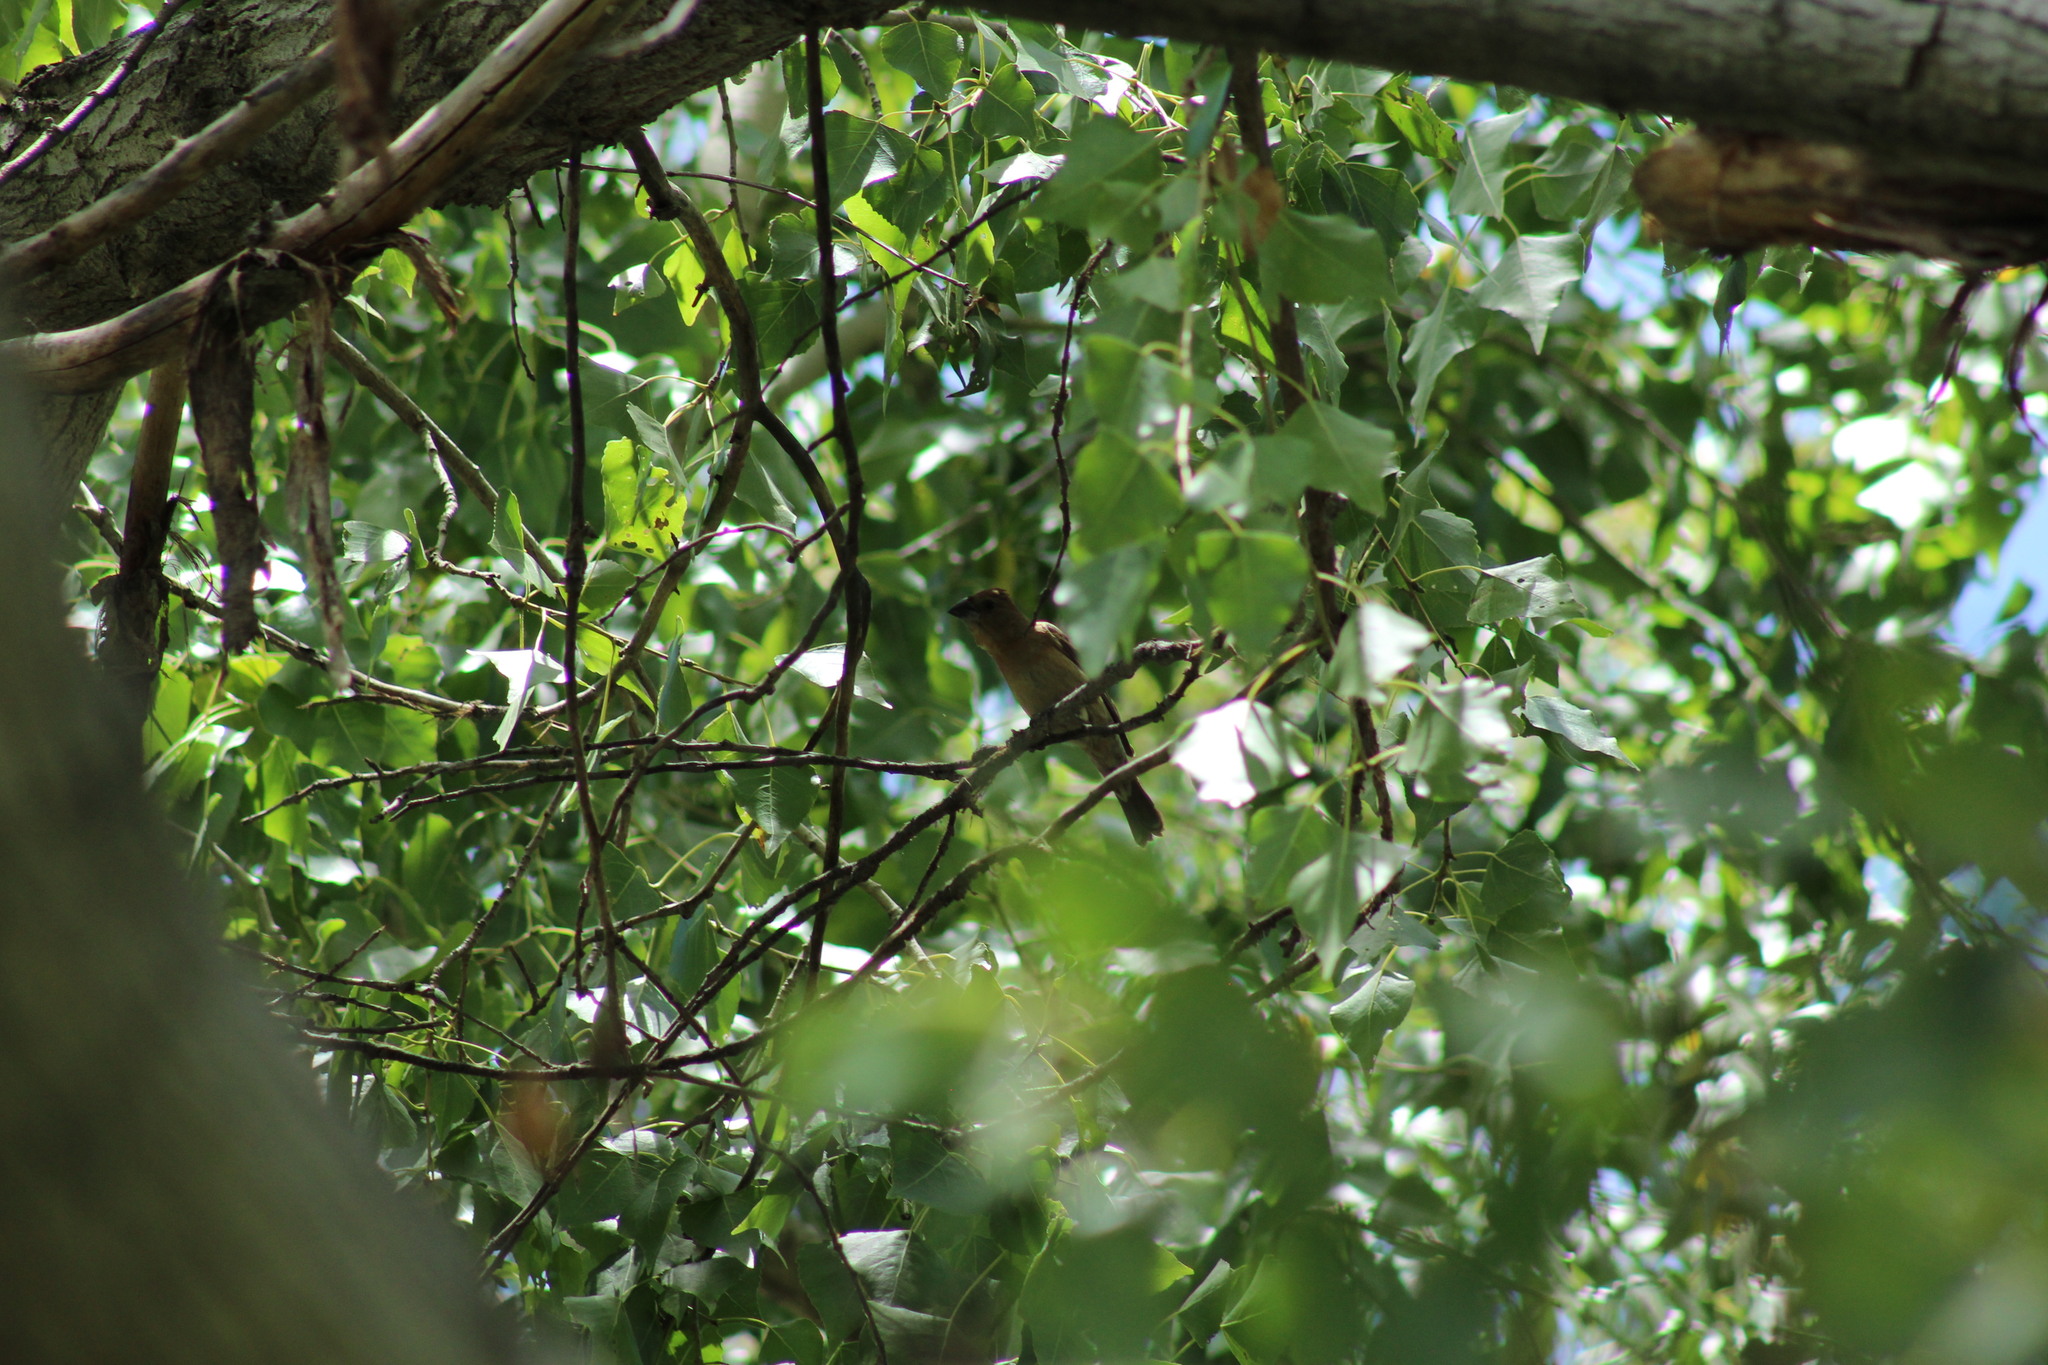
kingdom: Animalia
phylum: Chordata
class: Aves
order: Passeriformes
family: Cardinalidae
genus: Passerina
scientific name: Passerina caerulea
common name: Blue grosbeak
